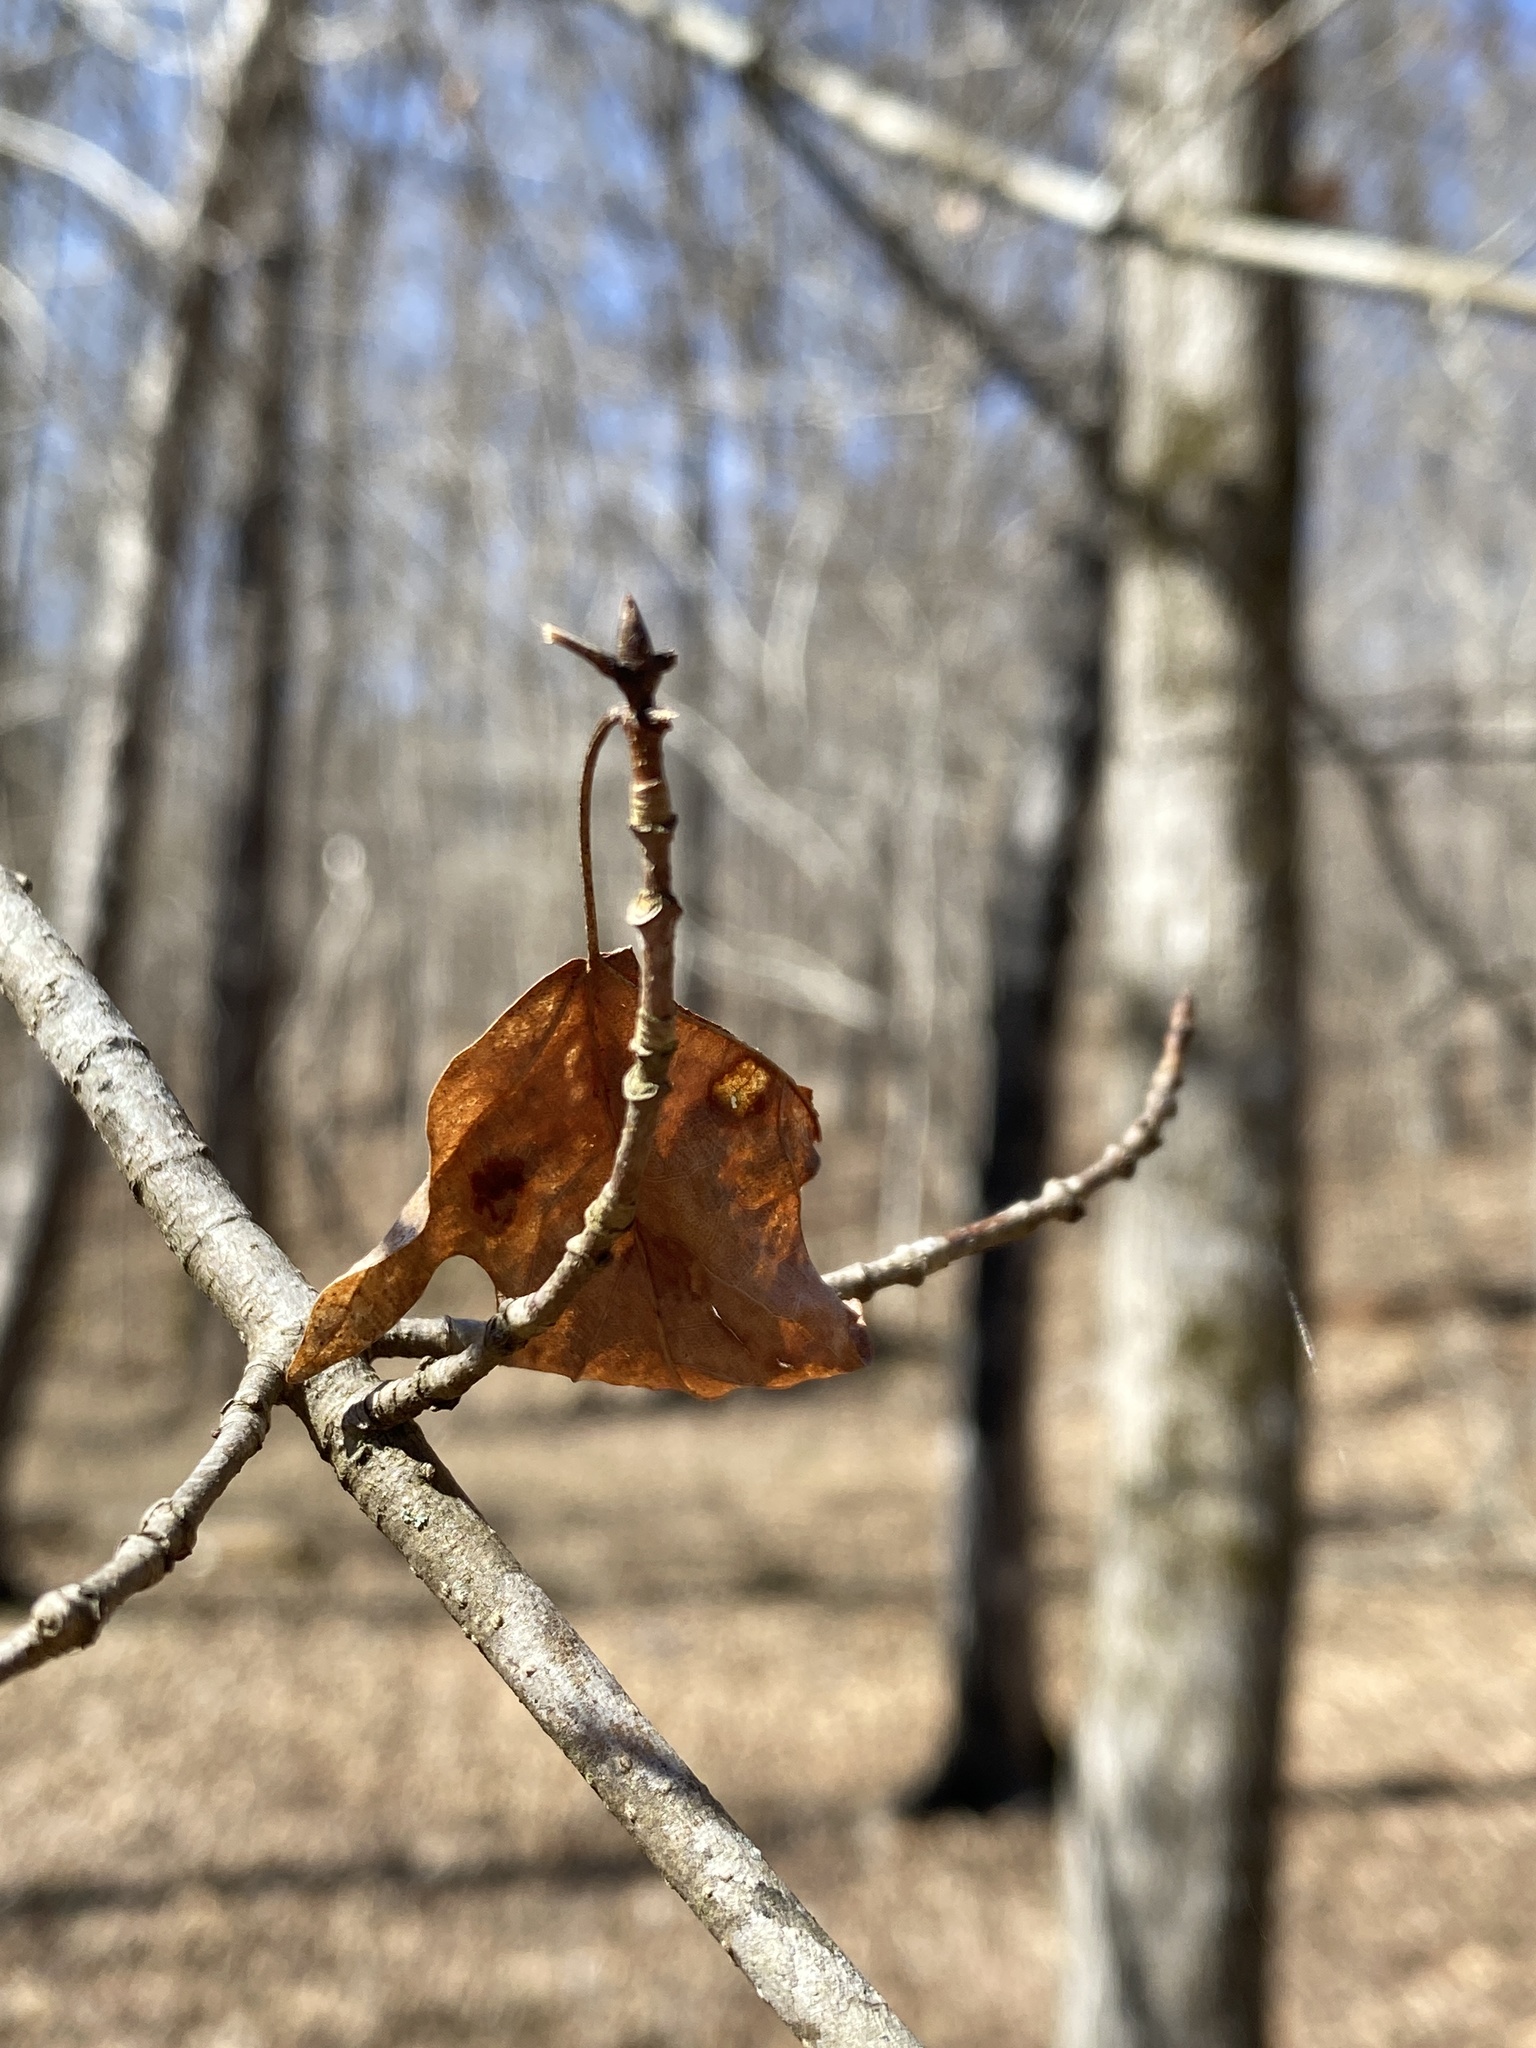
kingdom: Plantae
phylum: Tracheophyta
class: Magnoliopsida
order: Sapindales
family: Sapindaceae
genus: Acer
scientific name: Acer floridanum
